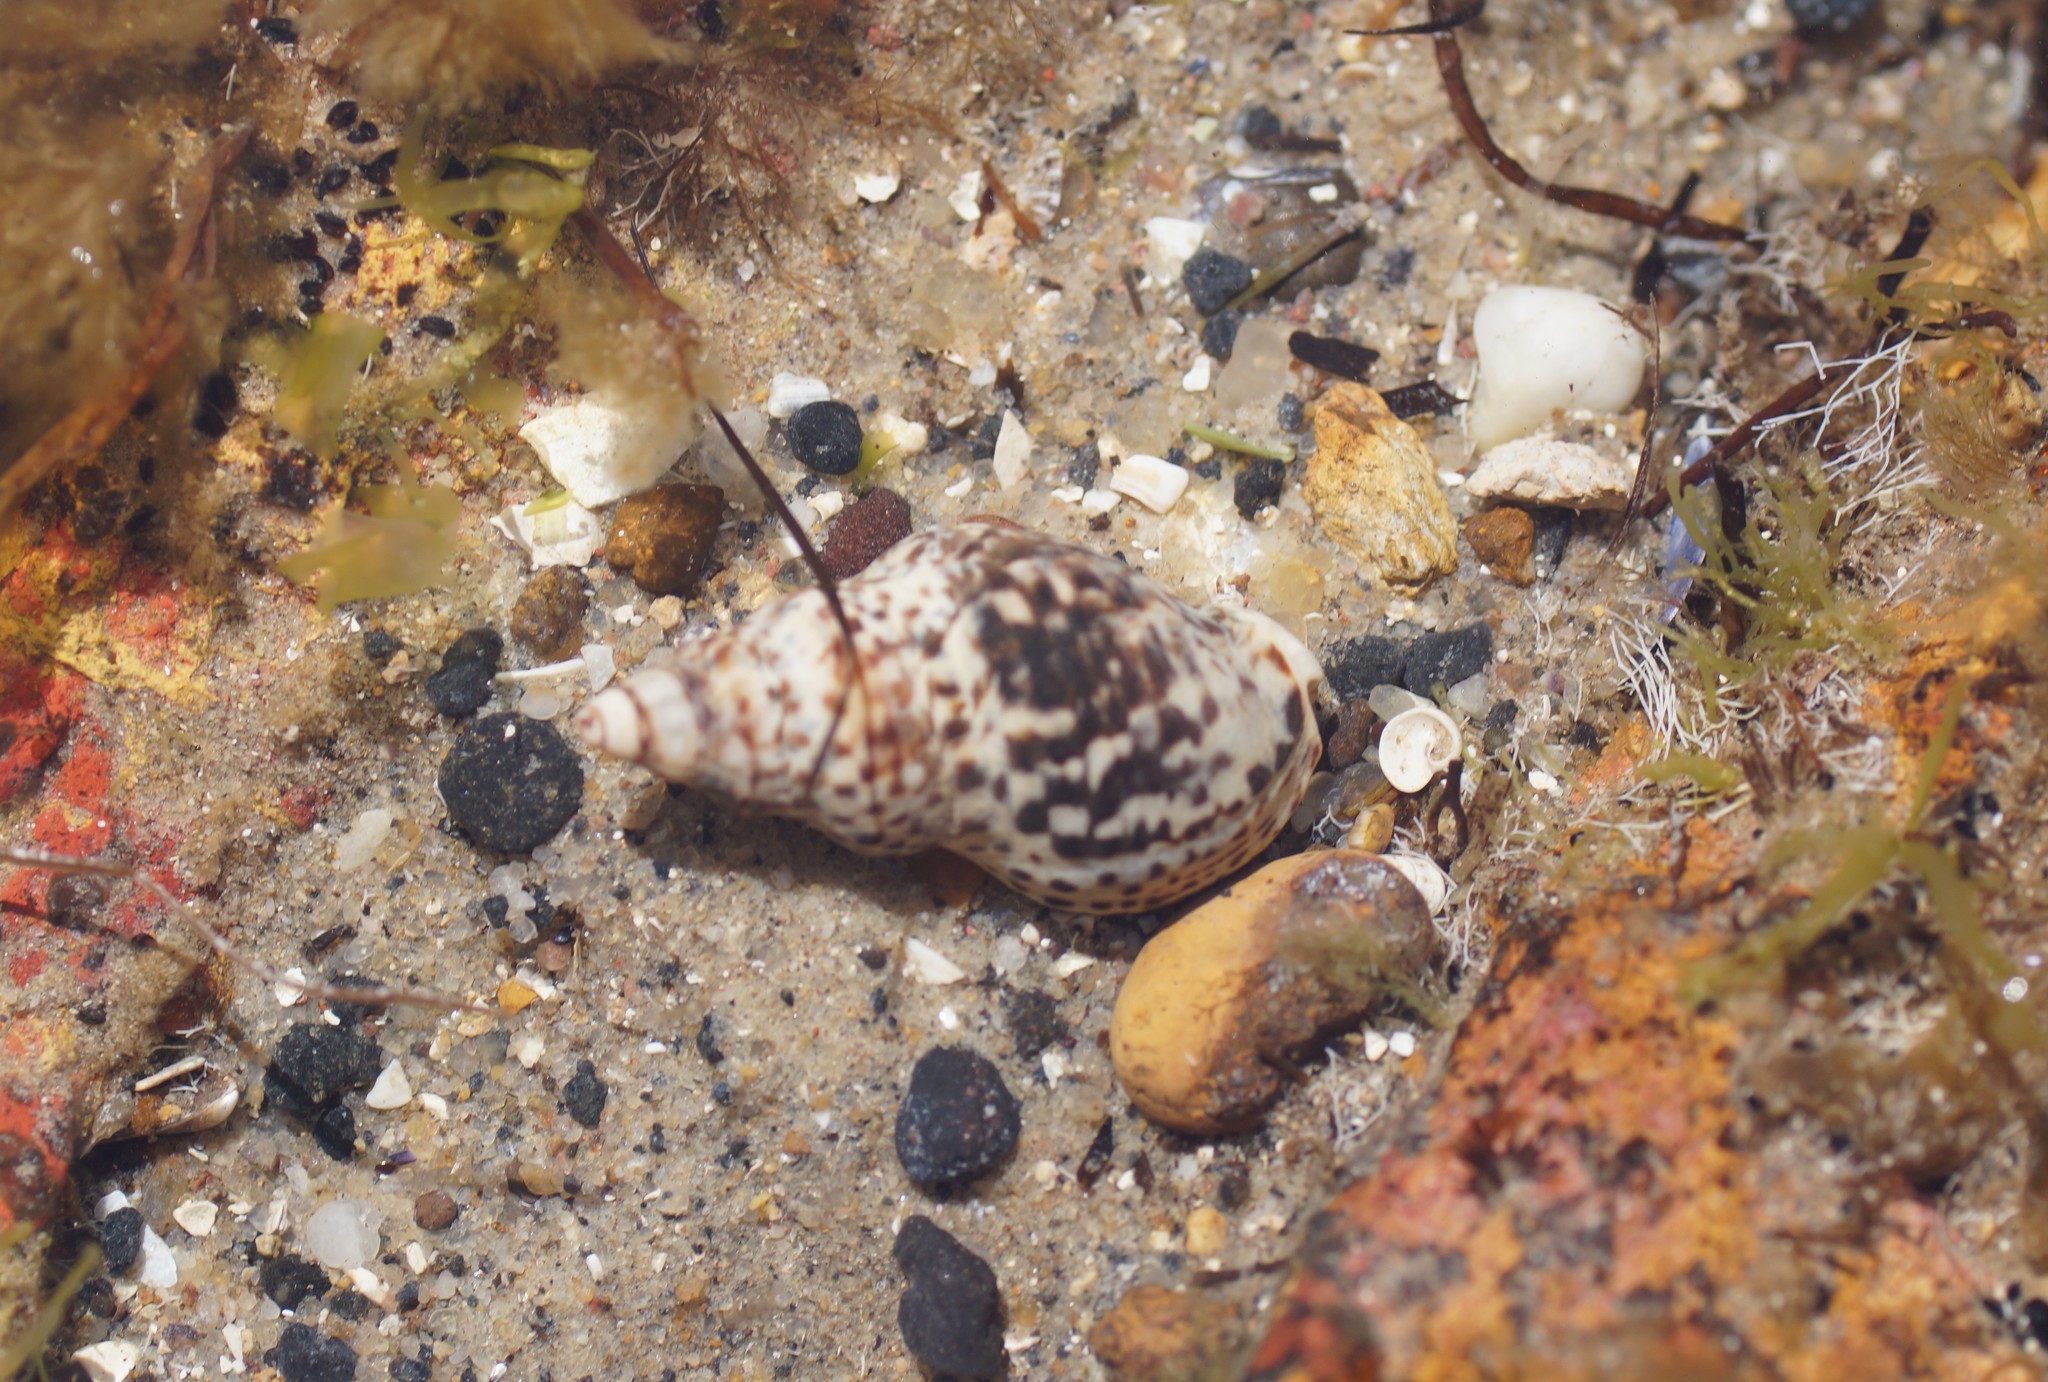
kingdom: Animalia
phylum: Mollusca
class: Gastropoda
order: Neogastropoda
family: Cominellidae
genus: Cominella
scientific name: Cominella lineolata
